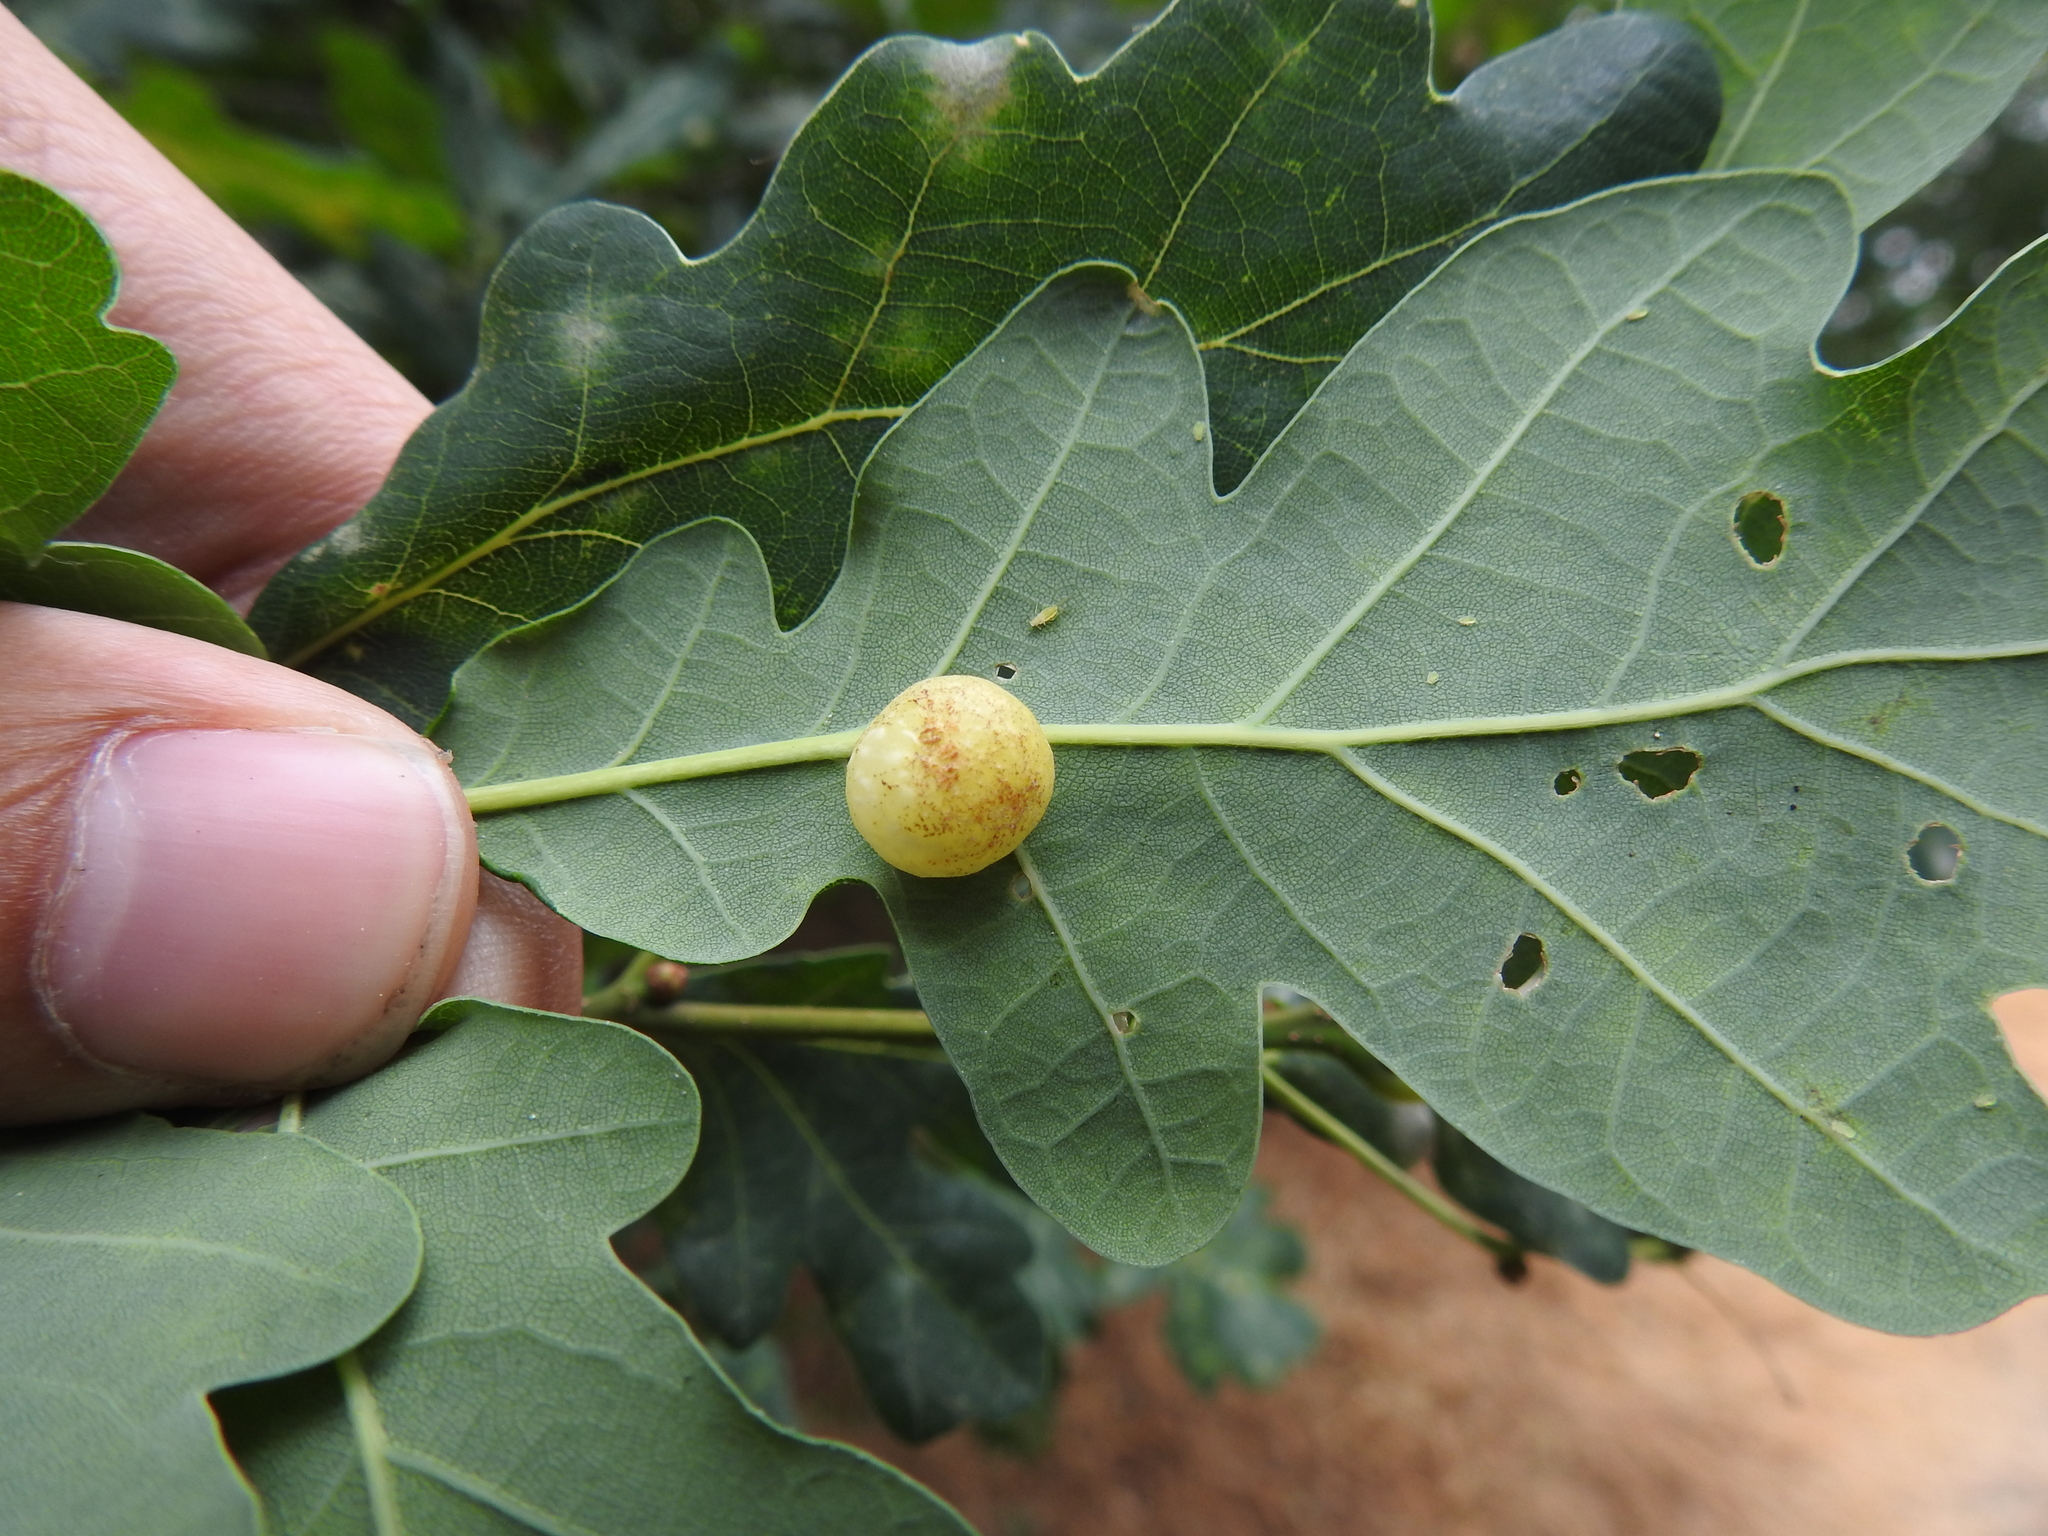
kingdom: Animalia
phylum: Arthropoda
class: Insecta
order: Hymenoptera
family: Cynipidae
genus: Cynips
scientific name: Cynips quercus
